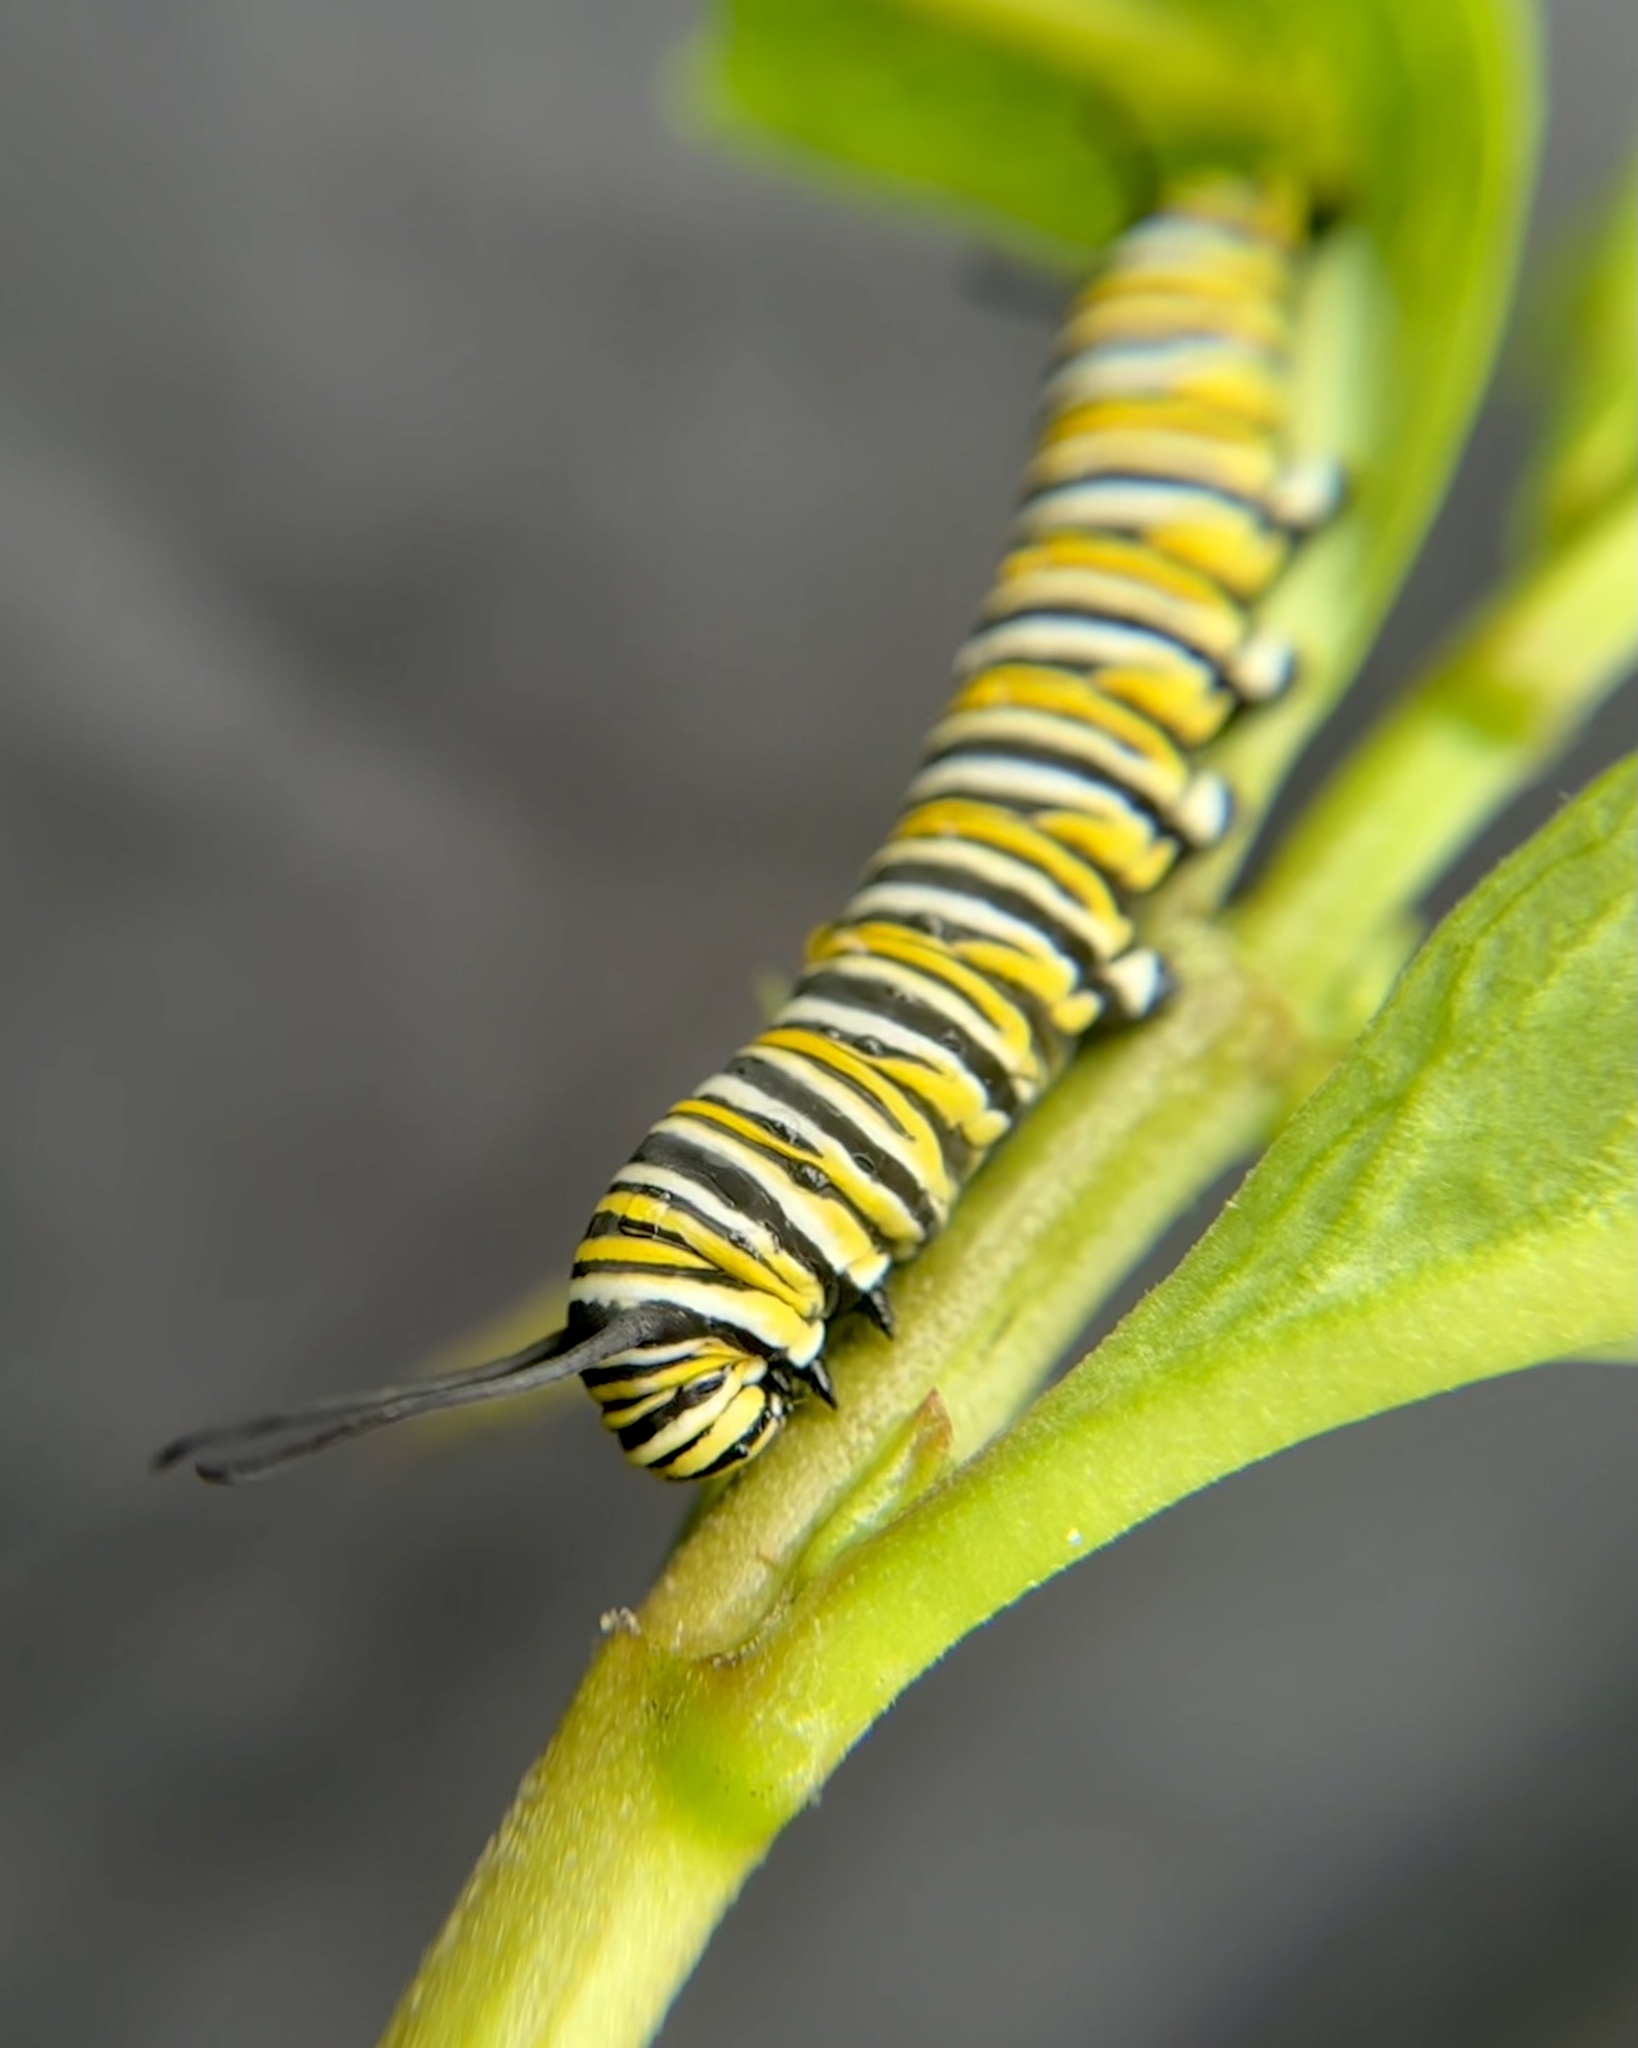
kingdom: Animalia
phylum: Arthropoda
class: Insecta
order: Lepidoptera
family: Nymphalidae
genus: Danaus
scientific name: Danaus plexippus
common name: Monarch
